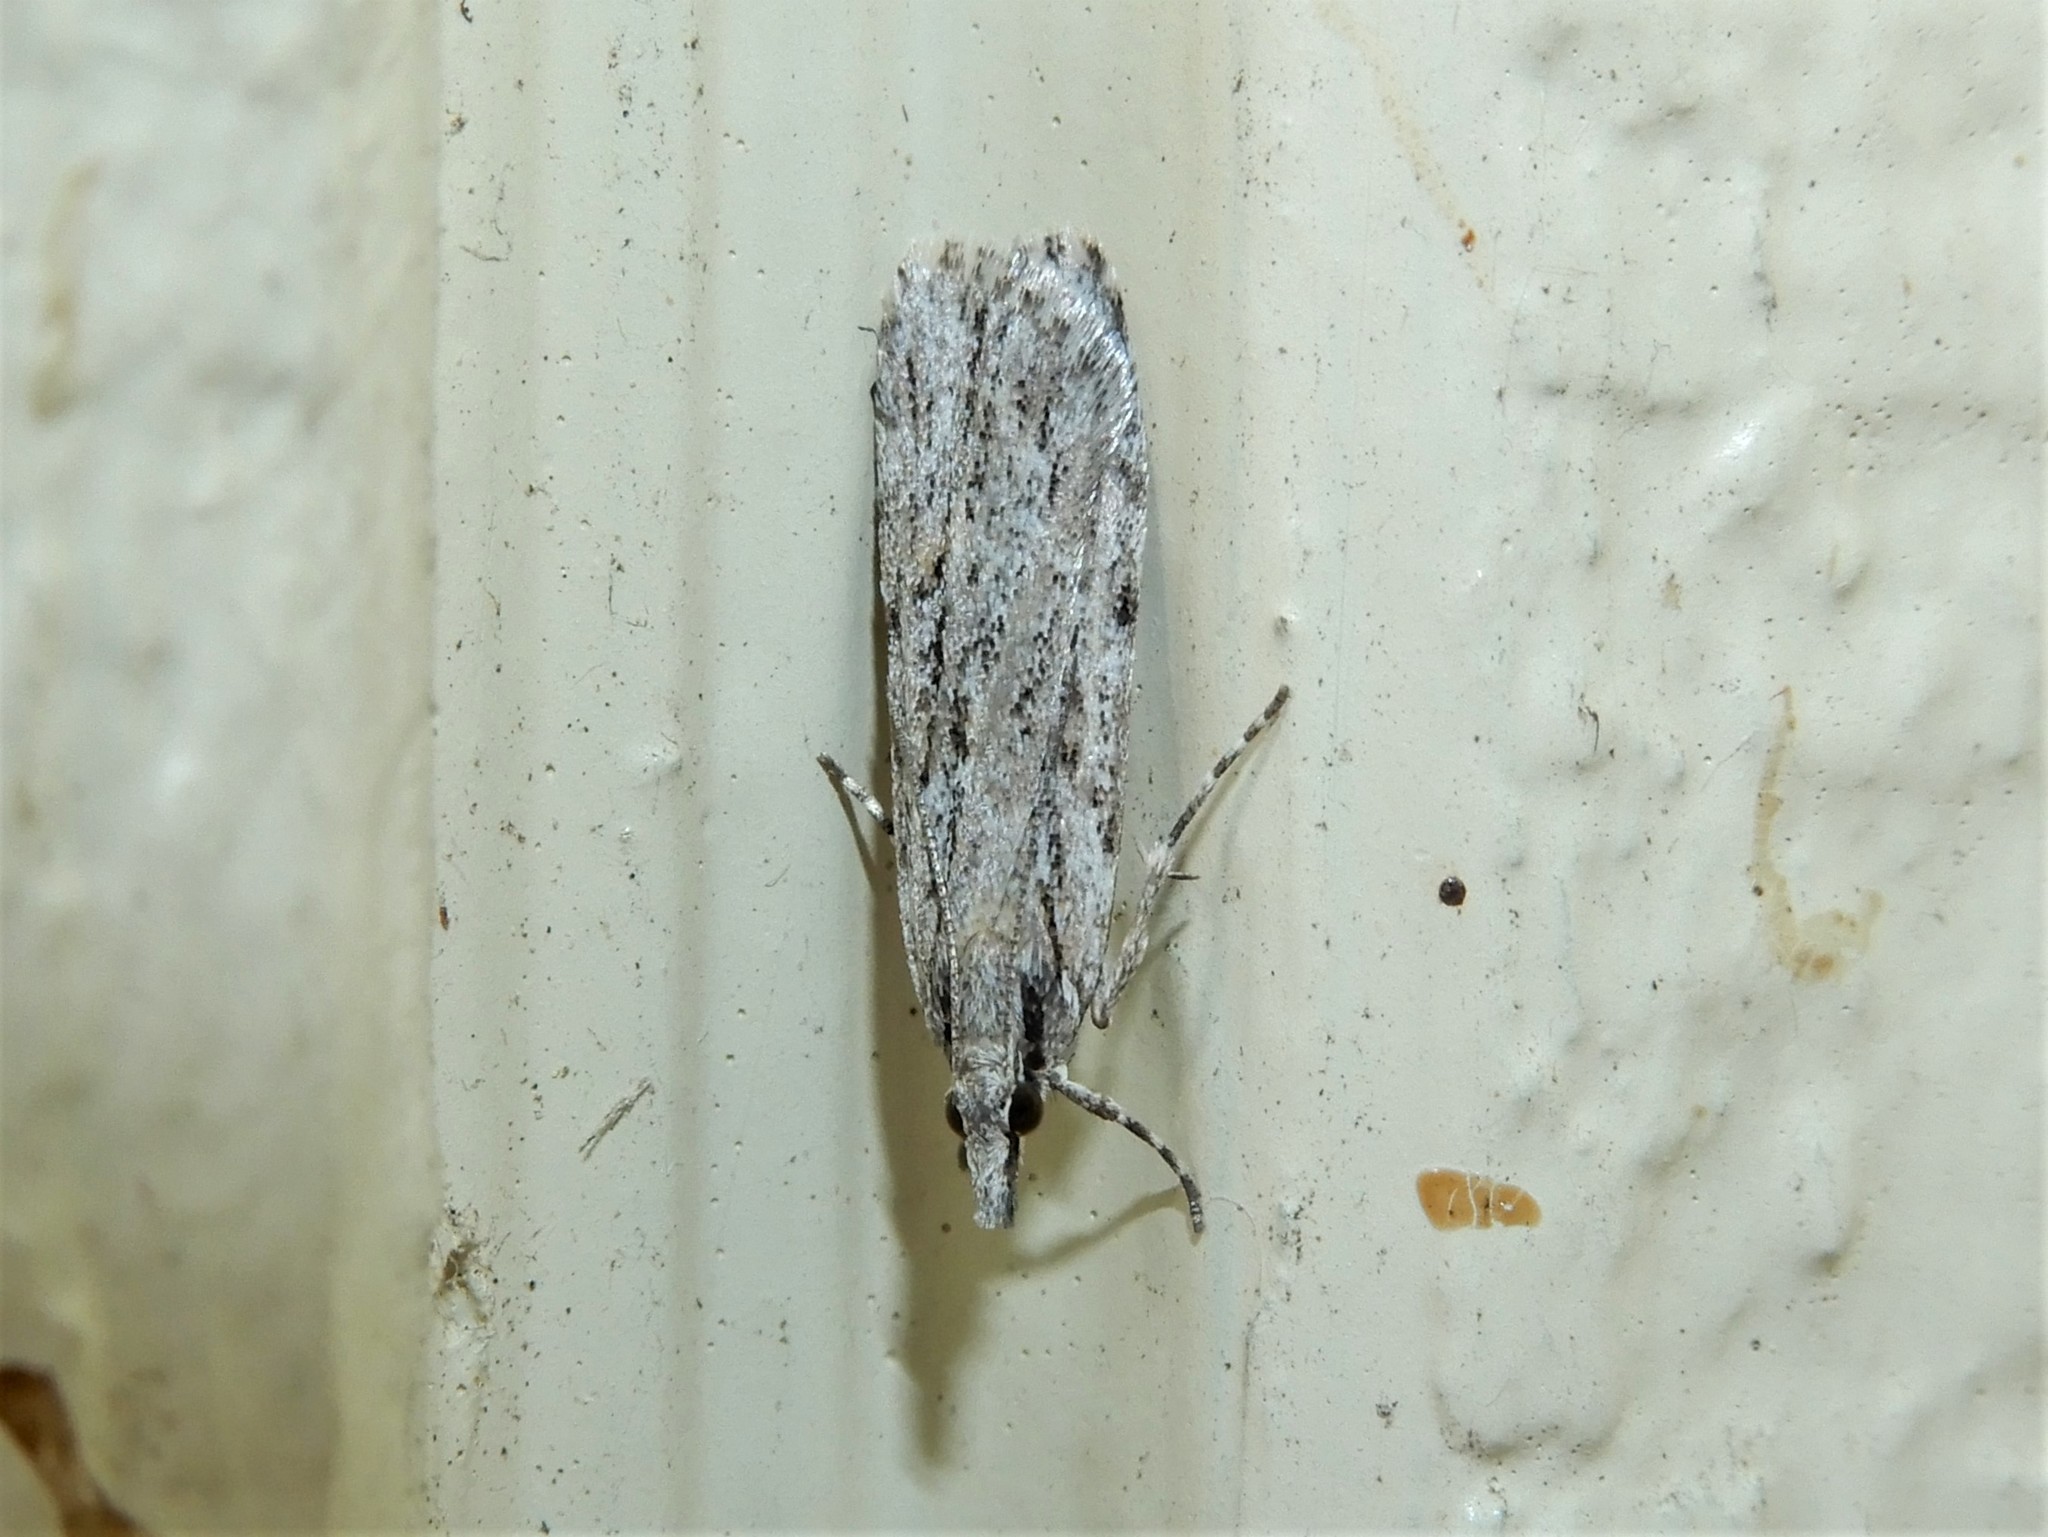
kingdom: Animalia
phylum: Arthropoda
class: Insecta
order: Lepidoptera
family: Crambidae
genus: Scoparia
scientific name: Scoparia chalicodes
